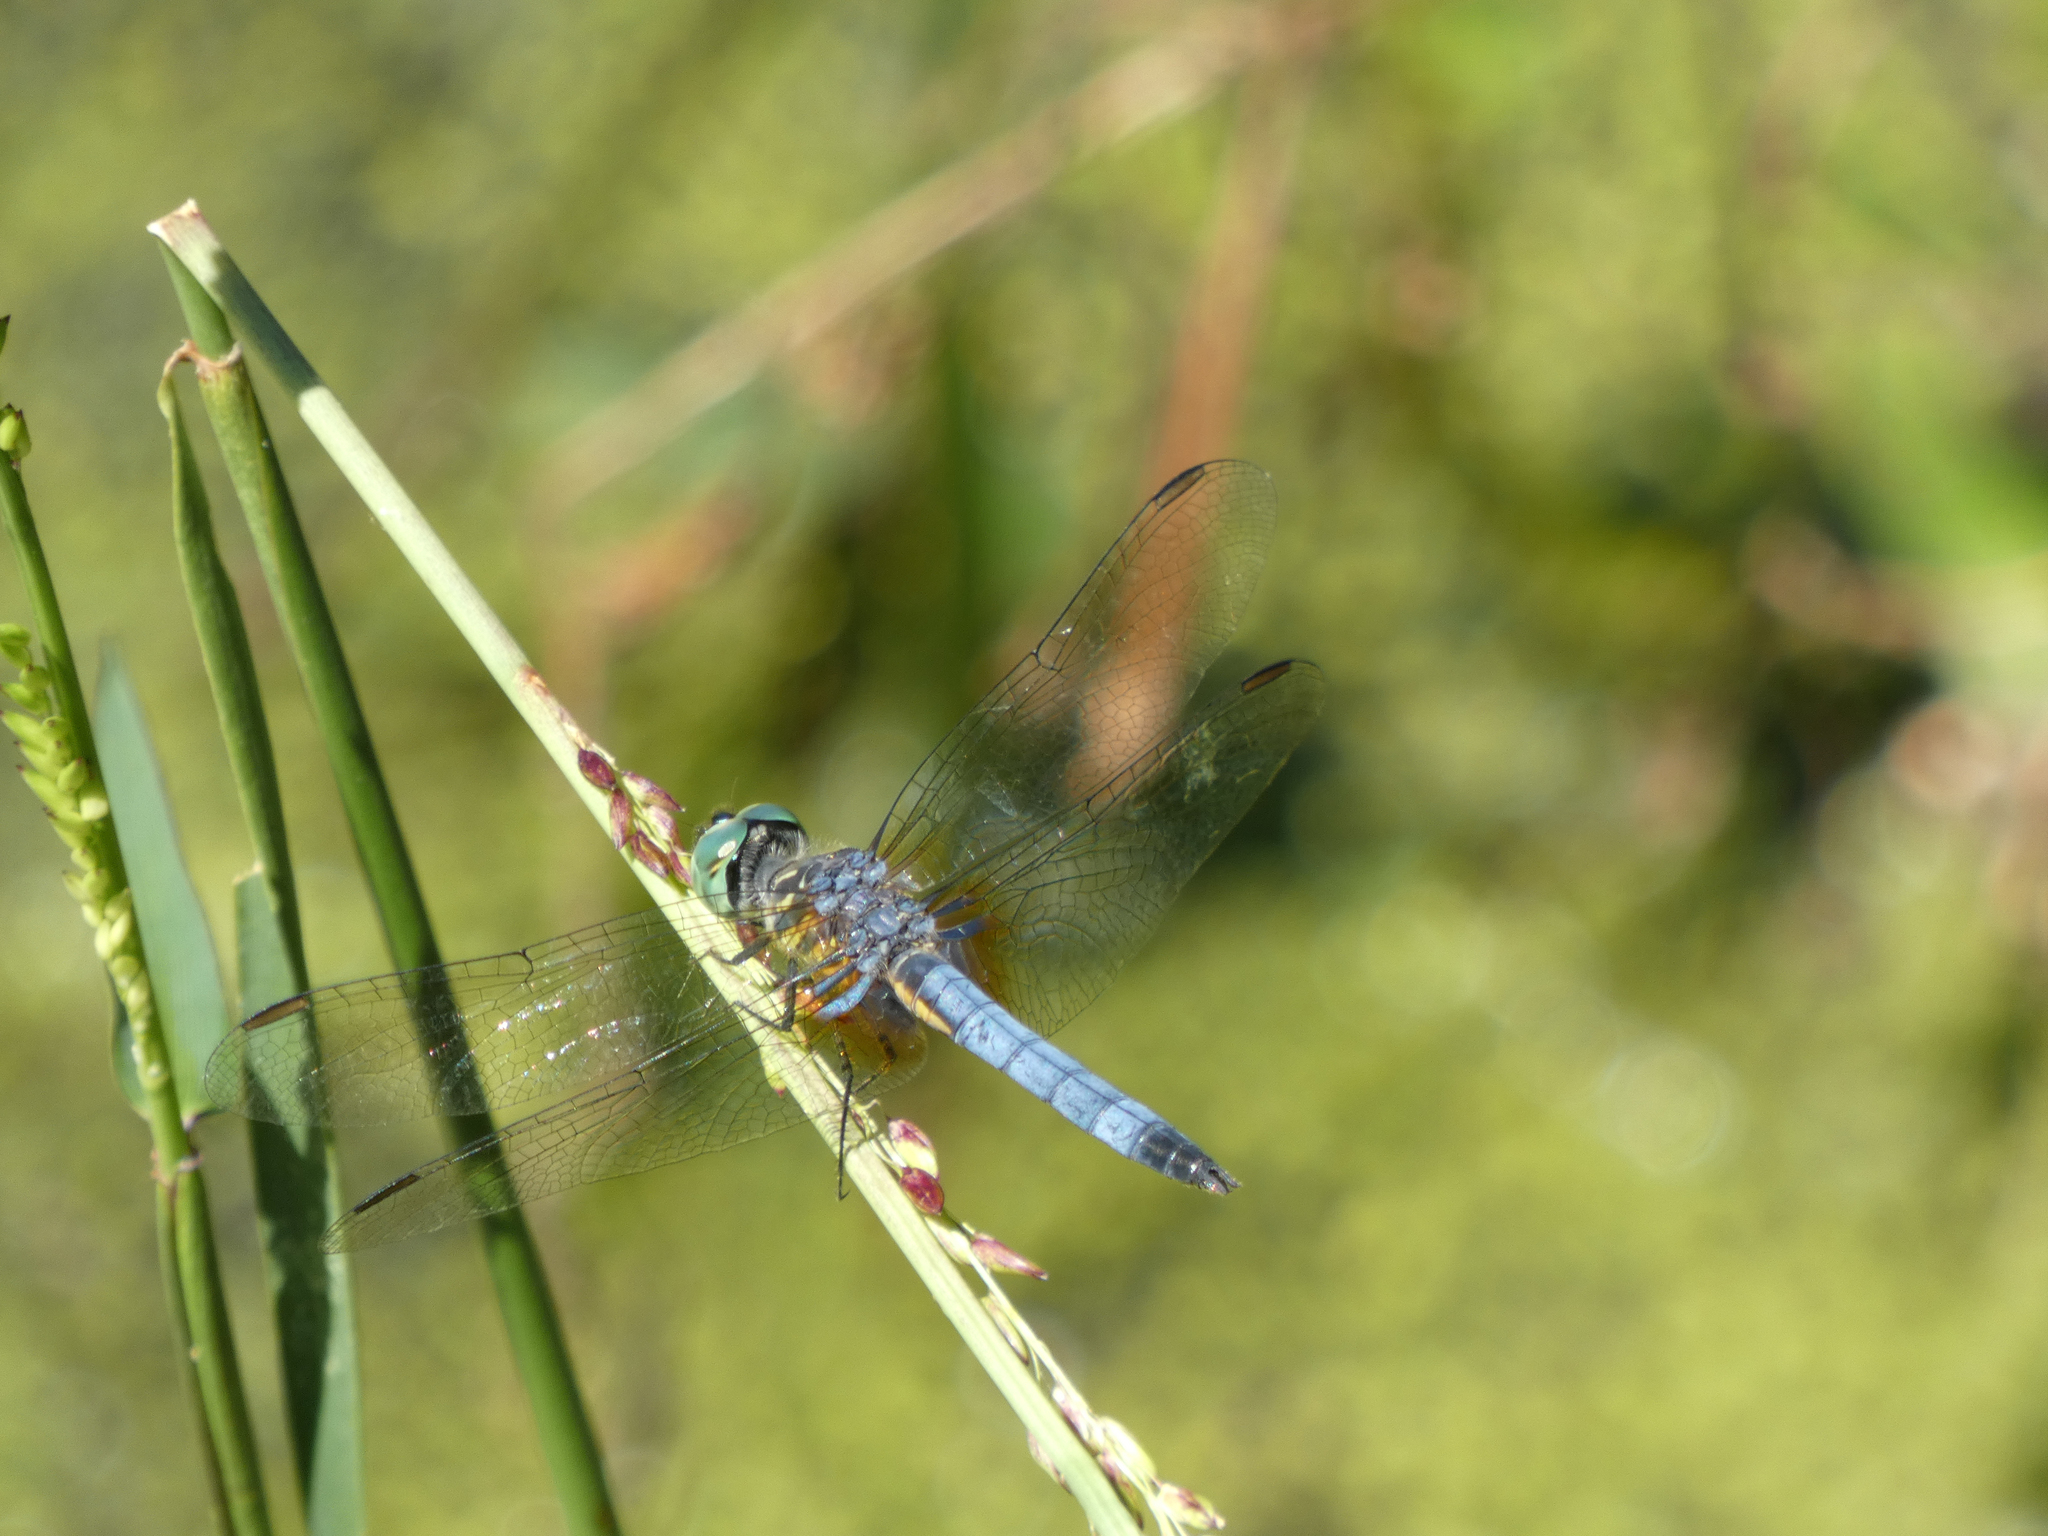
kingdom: Animalia
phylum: Arthropoda
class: Insecta
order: Odonata
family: Libellulidae
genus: Pachydiplax
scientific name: Pachydiplax longipennis
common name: Blue dasher
